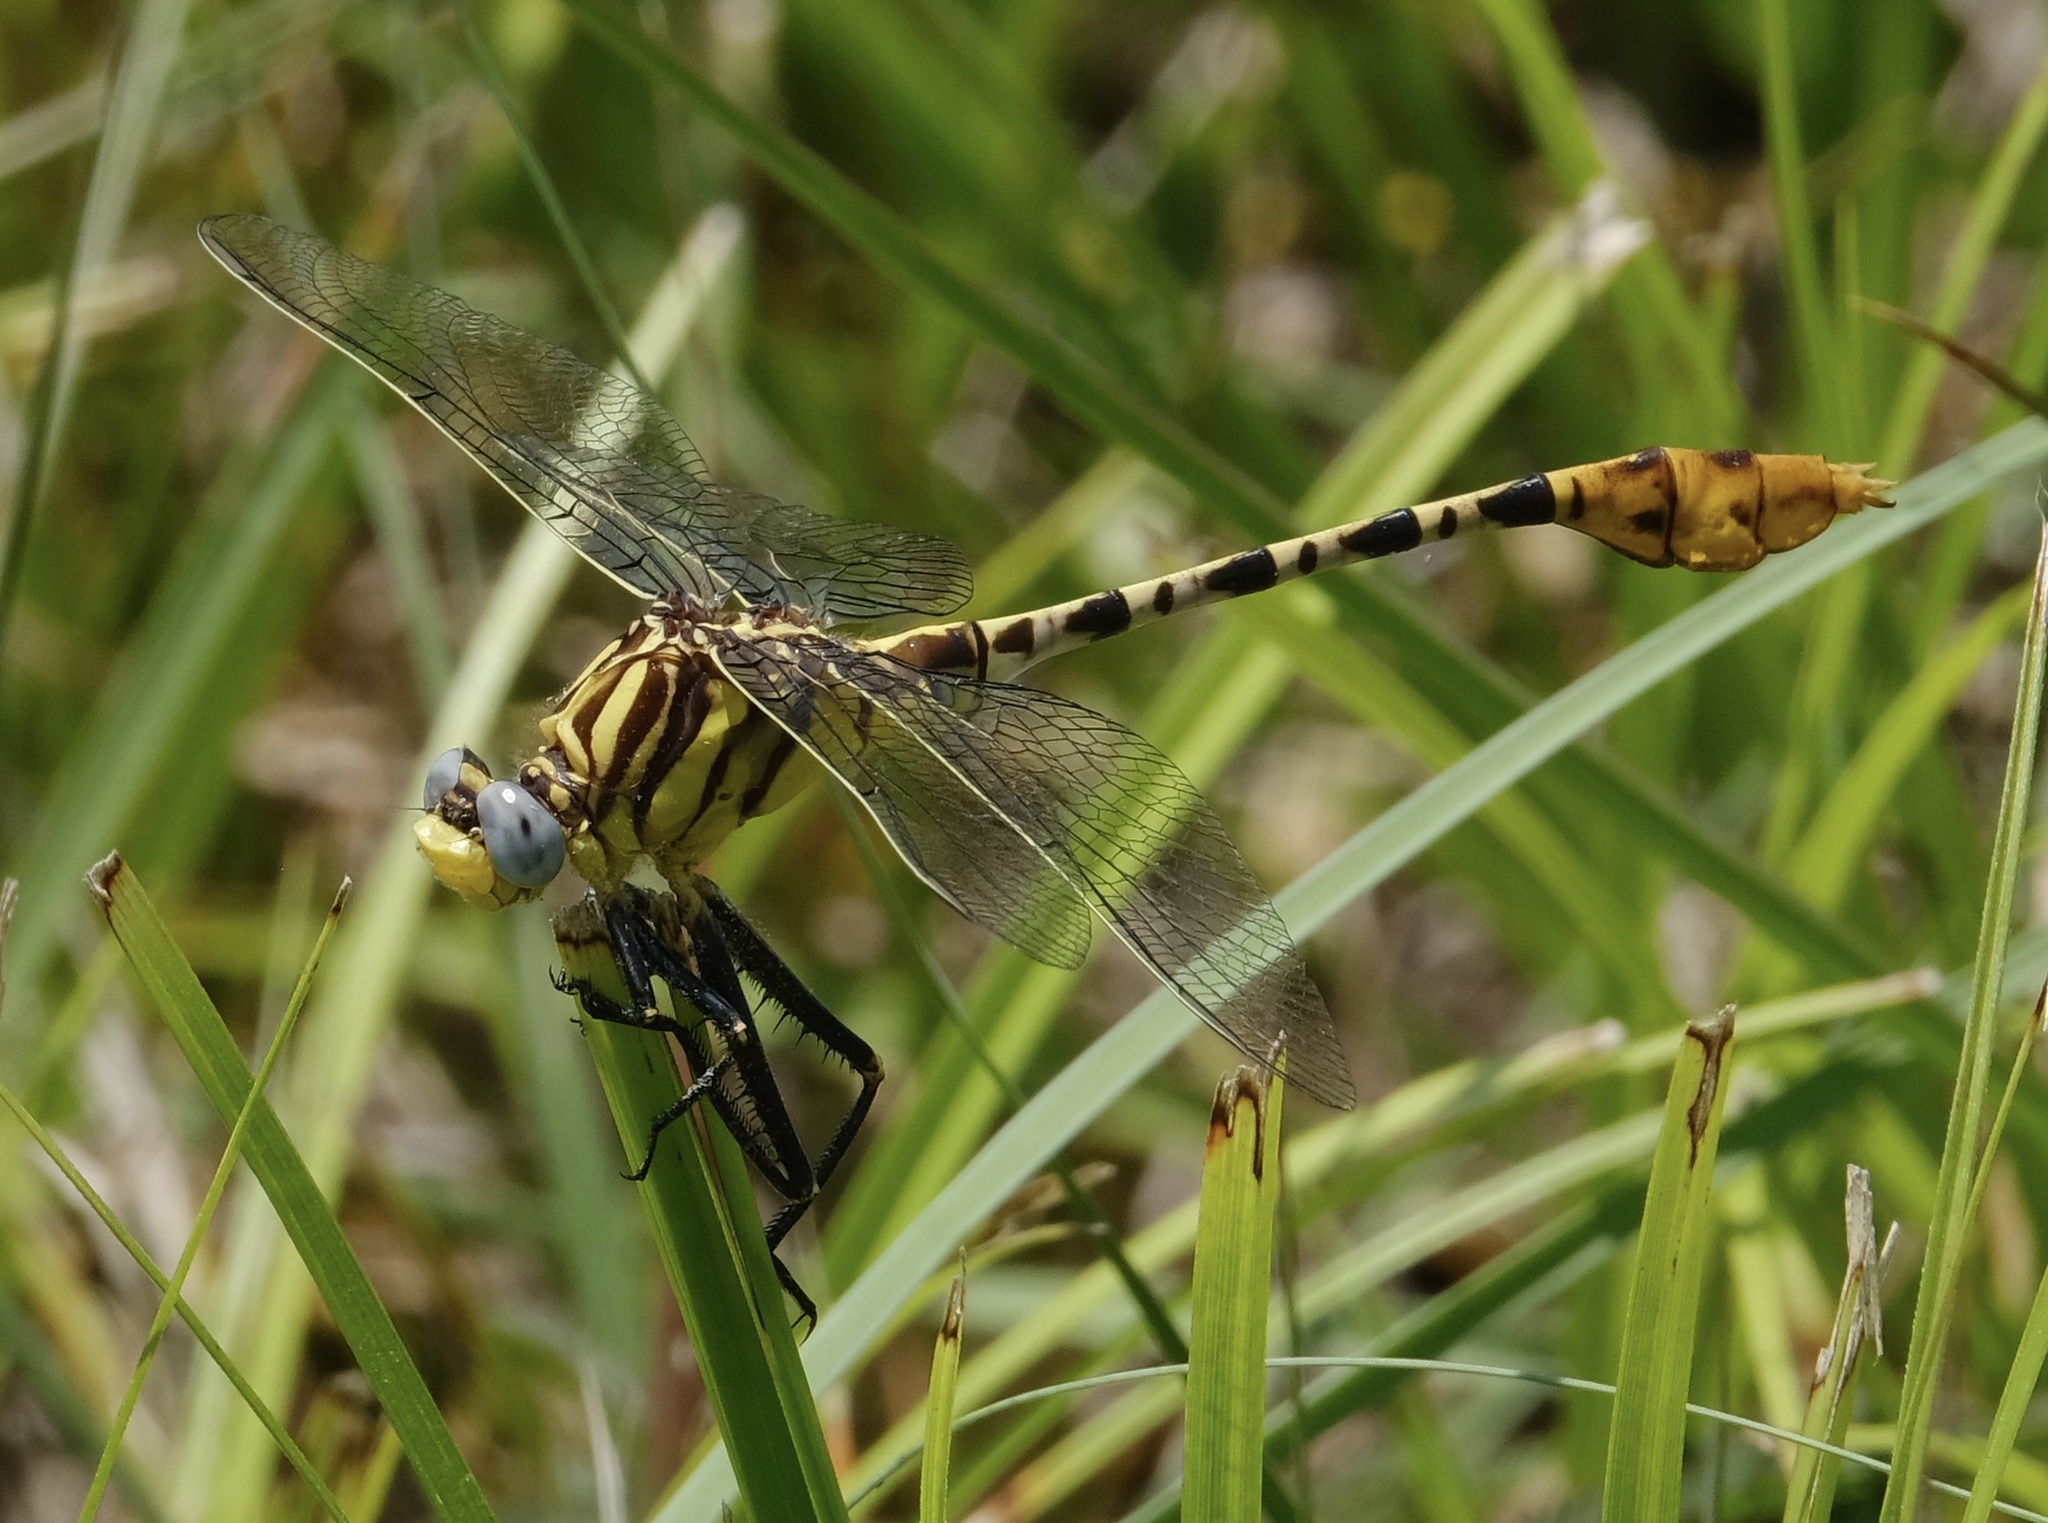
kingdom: Animalia
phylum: Arthropoda
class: Insecta
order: Odonata
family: Gomphidae
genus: Dromogomphus
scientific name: Dromogomphus spoliatus
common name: Flag-tailed spinyleg
